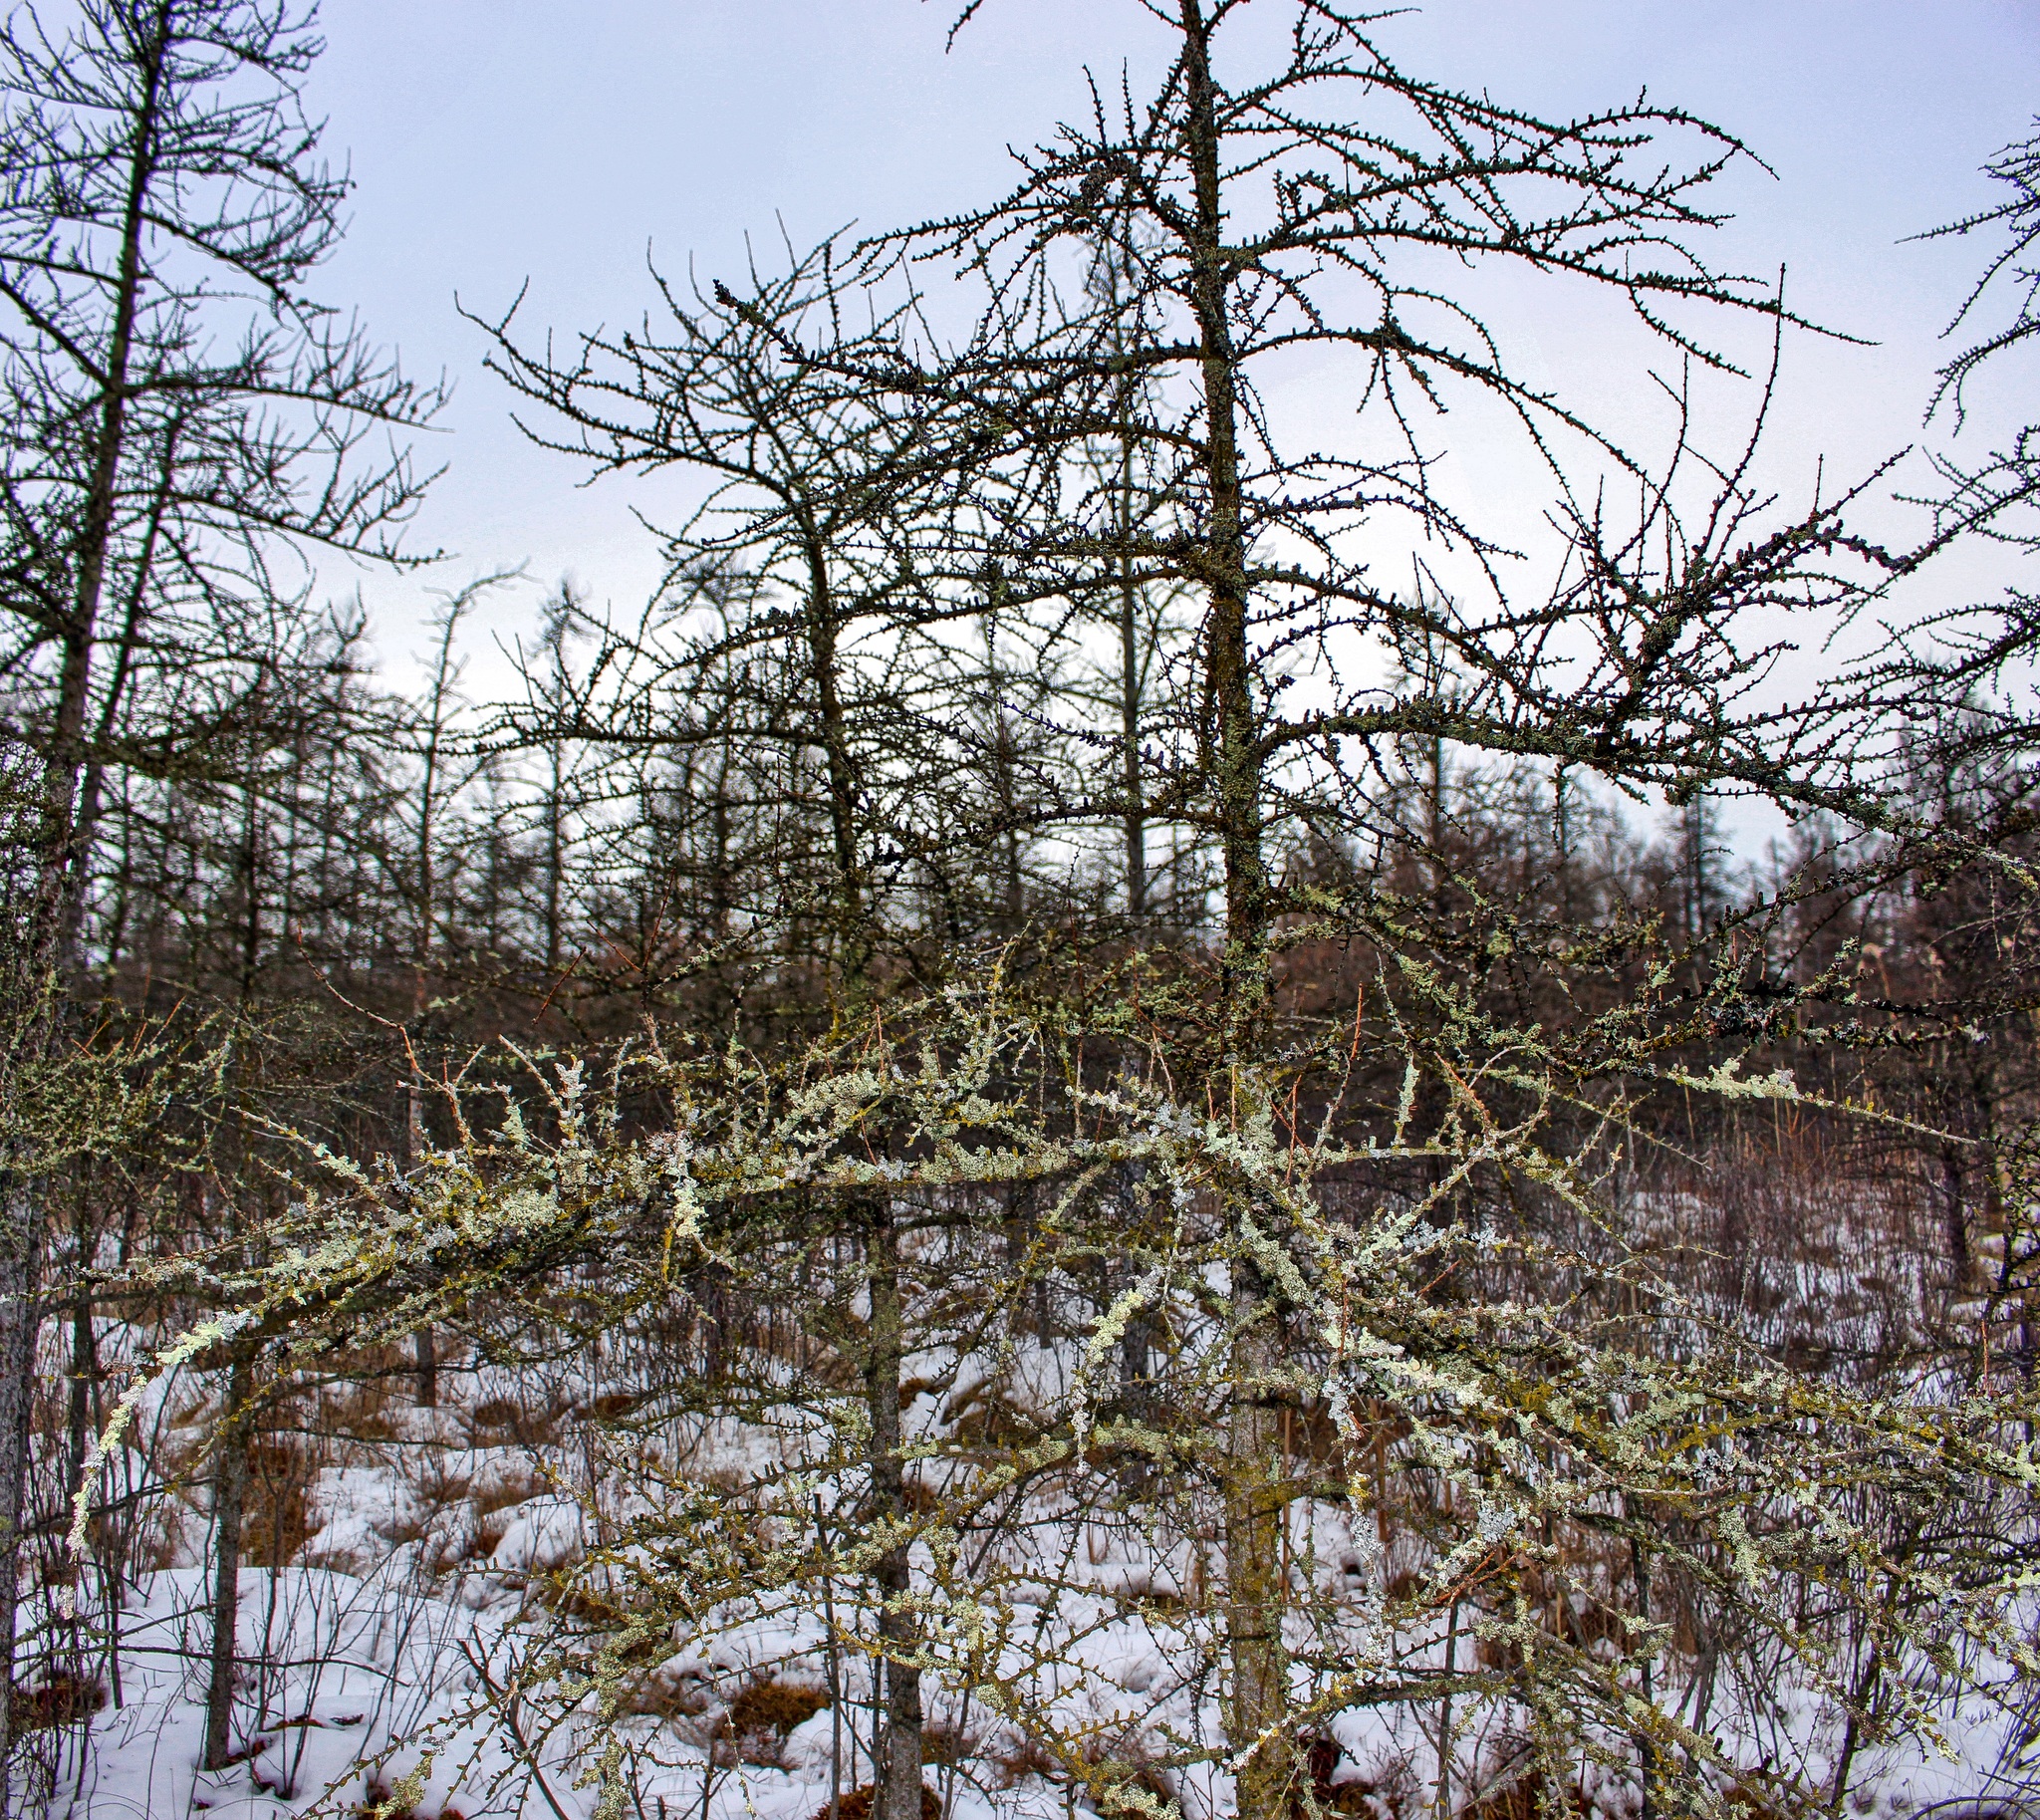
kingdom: Plantae
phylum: Tracheophyta
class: Pinopsida
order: Pinales
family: Pinaceae
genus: Larix
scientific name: Larix laricina
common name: American larch
